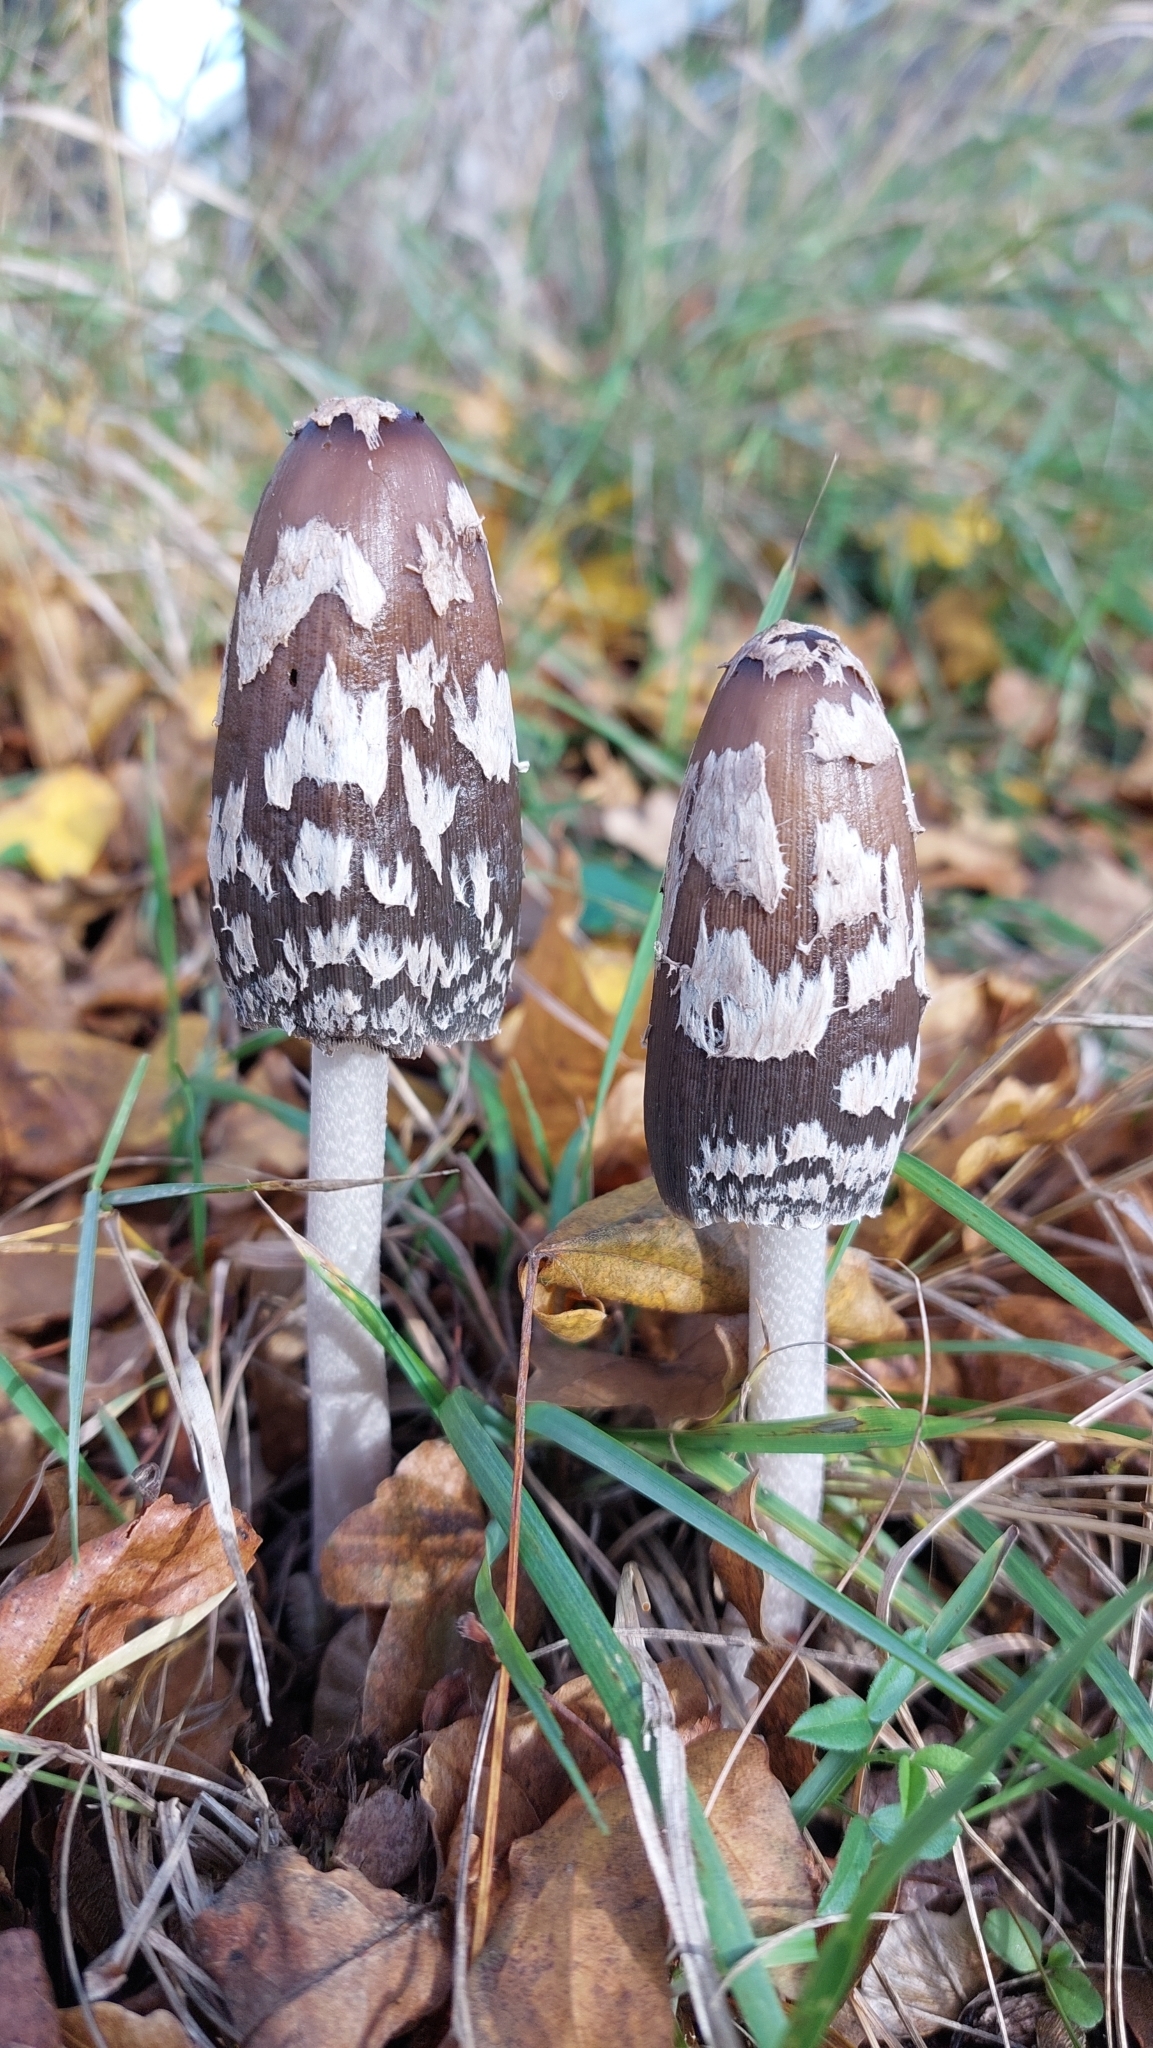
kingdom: Fungi
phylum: Basidiomycota
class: Agaricomycetes
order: Agaricales
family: Psathyrellaceae
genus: Coprinopsis
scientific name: Coprinopsis picacea
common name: Magpie inkcap
